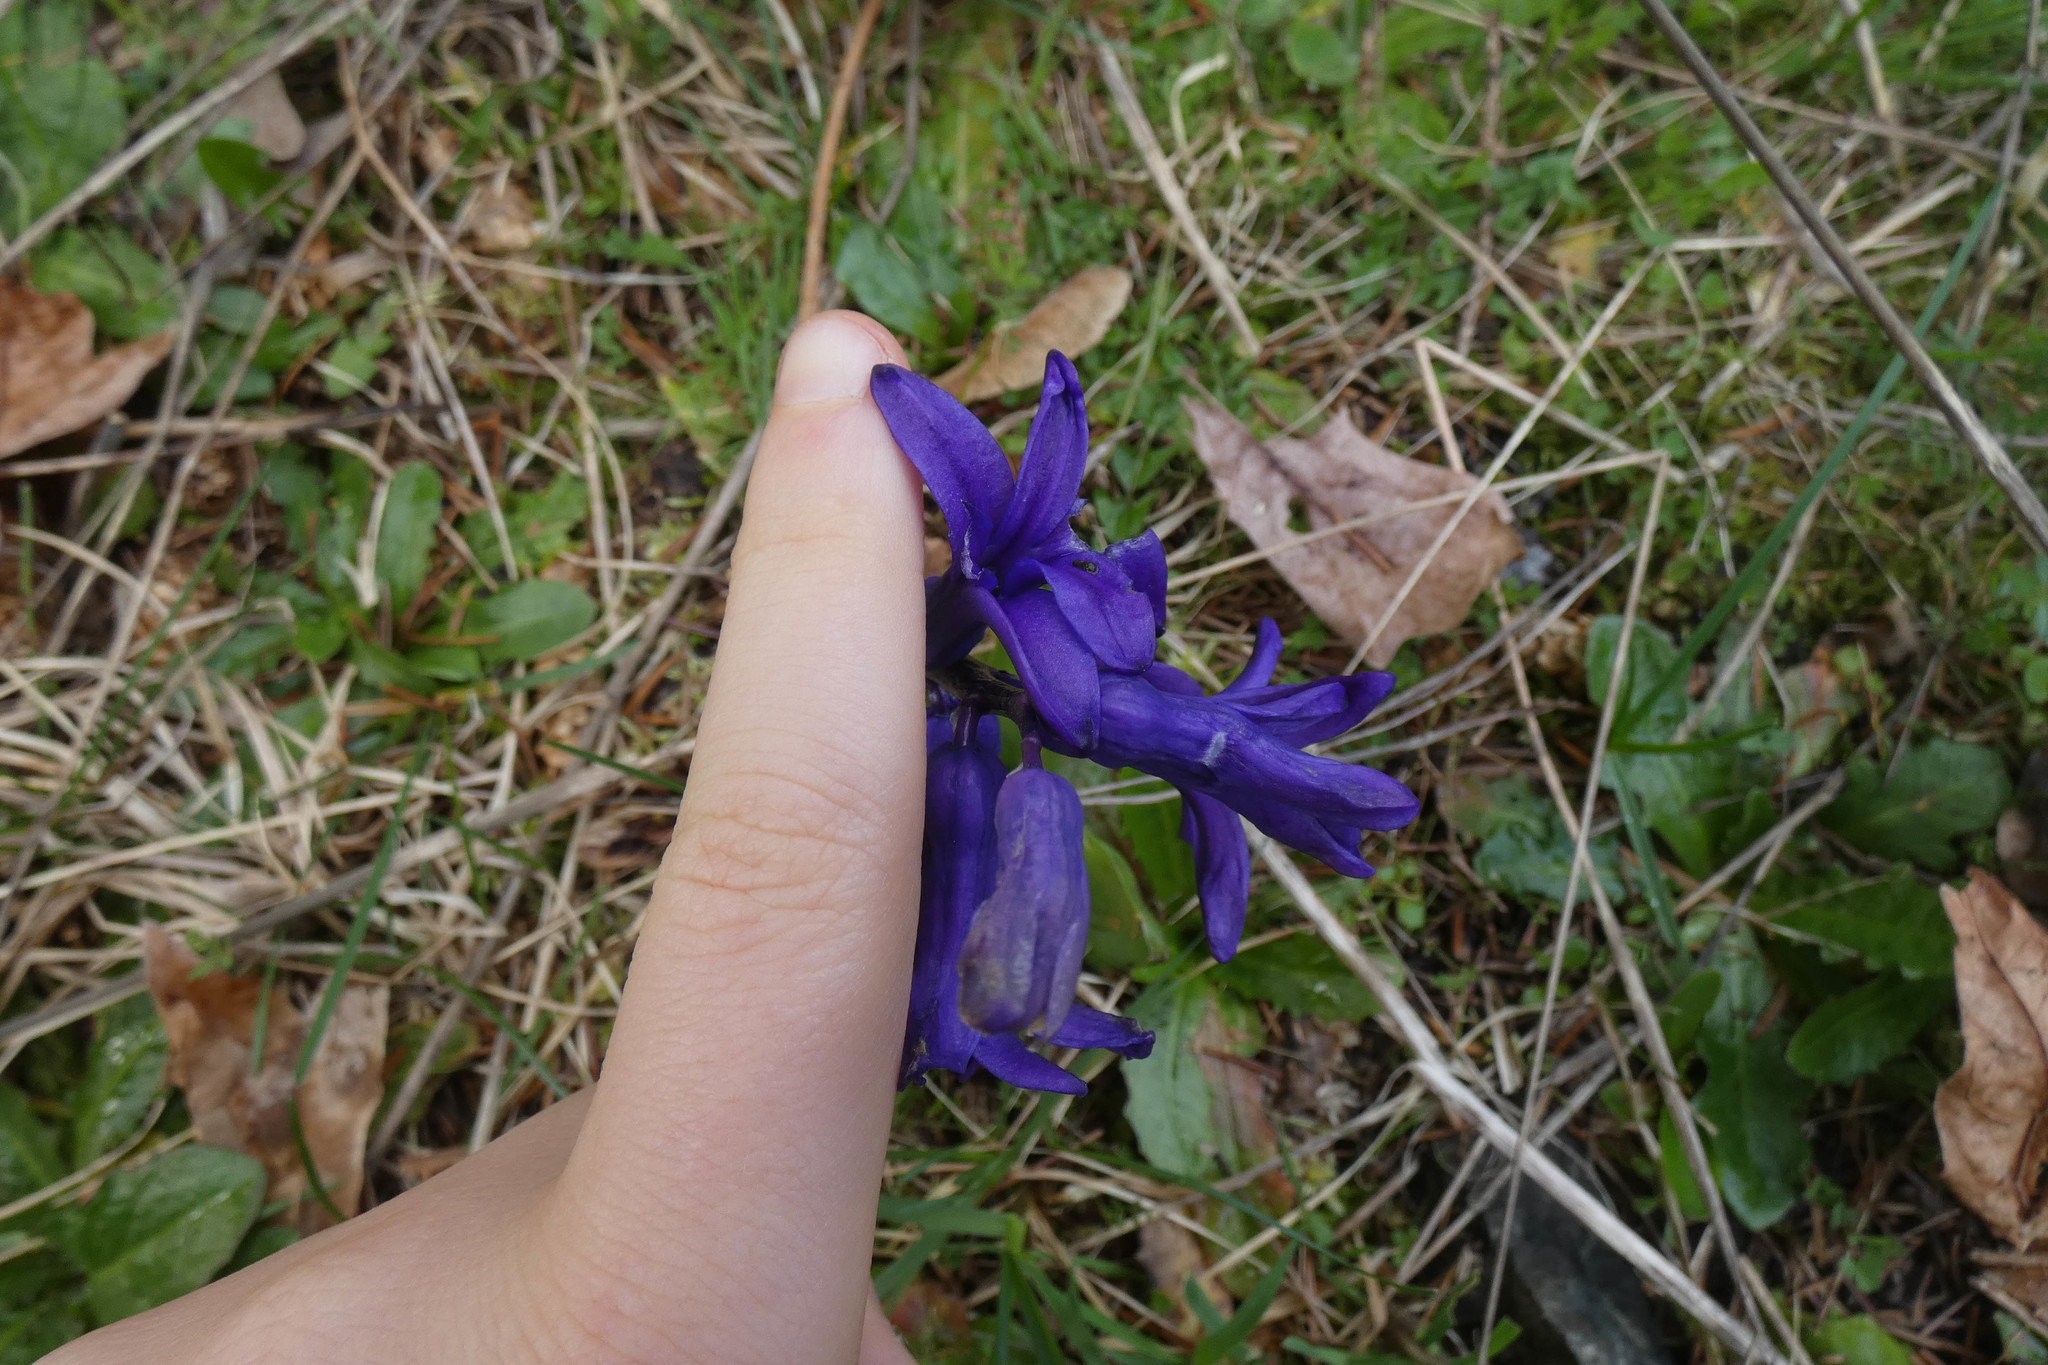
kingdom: Plantae
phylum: Tracheophyta
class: Liliopsida
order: Asparagales
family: Asparagaceae
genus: Hyacinthus
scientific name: Hyacinthus orientalis
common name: Hyacinth
